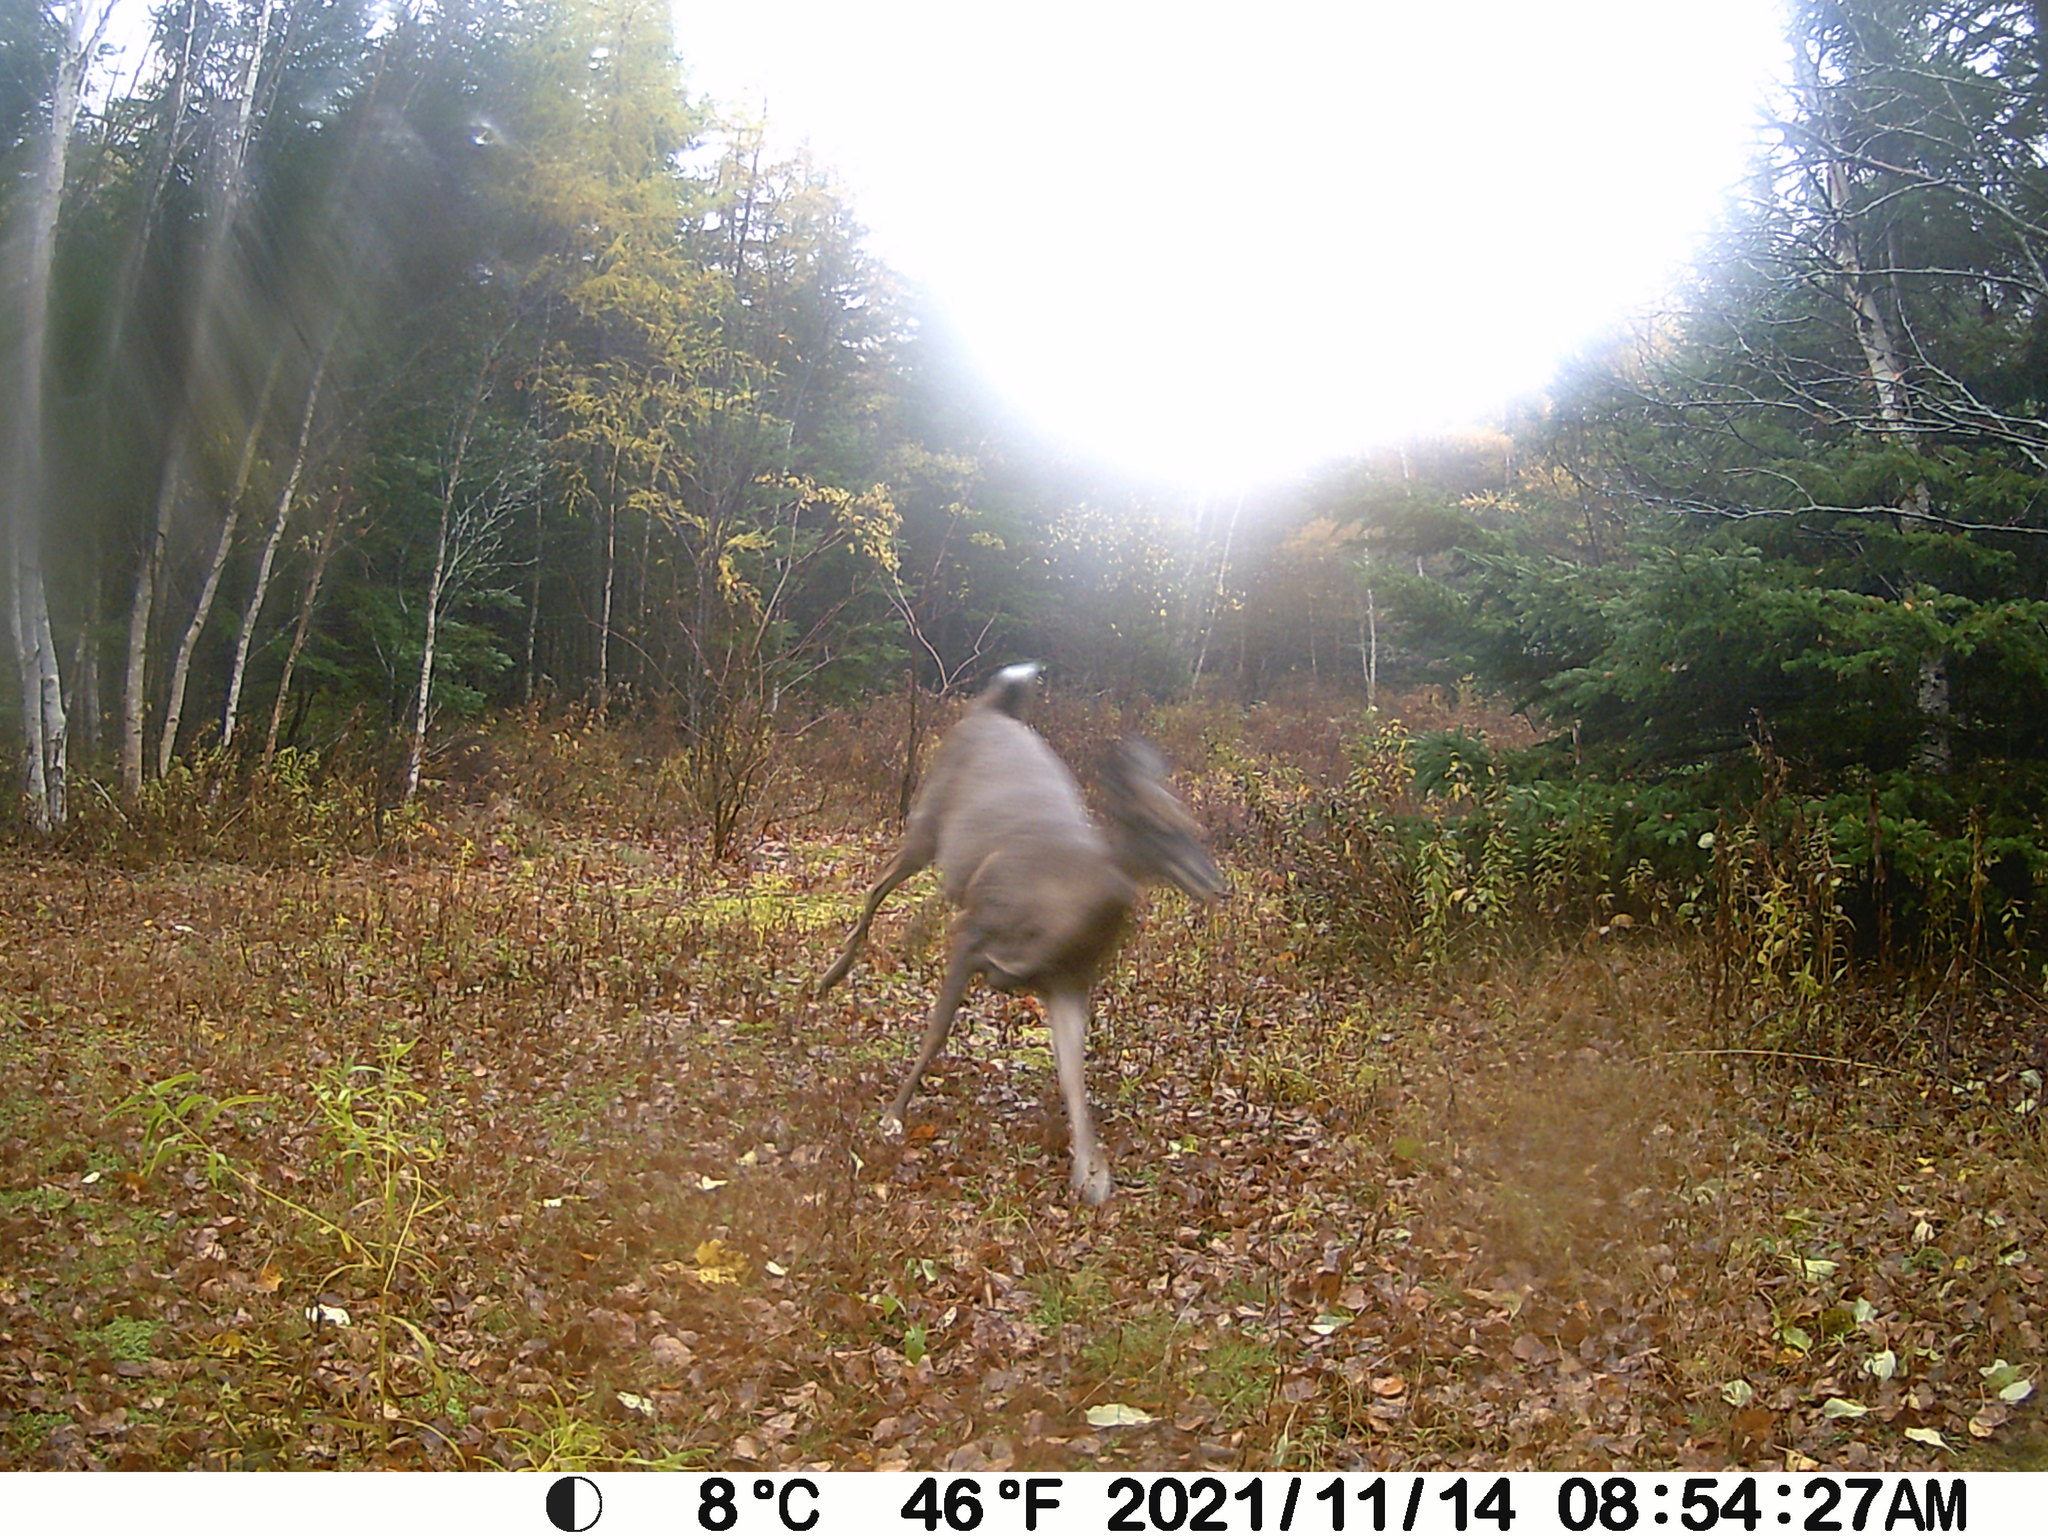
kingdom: Animalia
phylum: Chordata
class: Mammalia
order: Artiodactyla
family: Cervidae
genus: Odocoileus
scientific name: Odocoileus virginianus
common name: White-tailed deer
